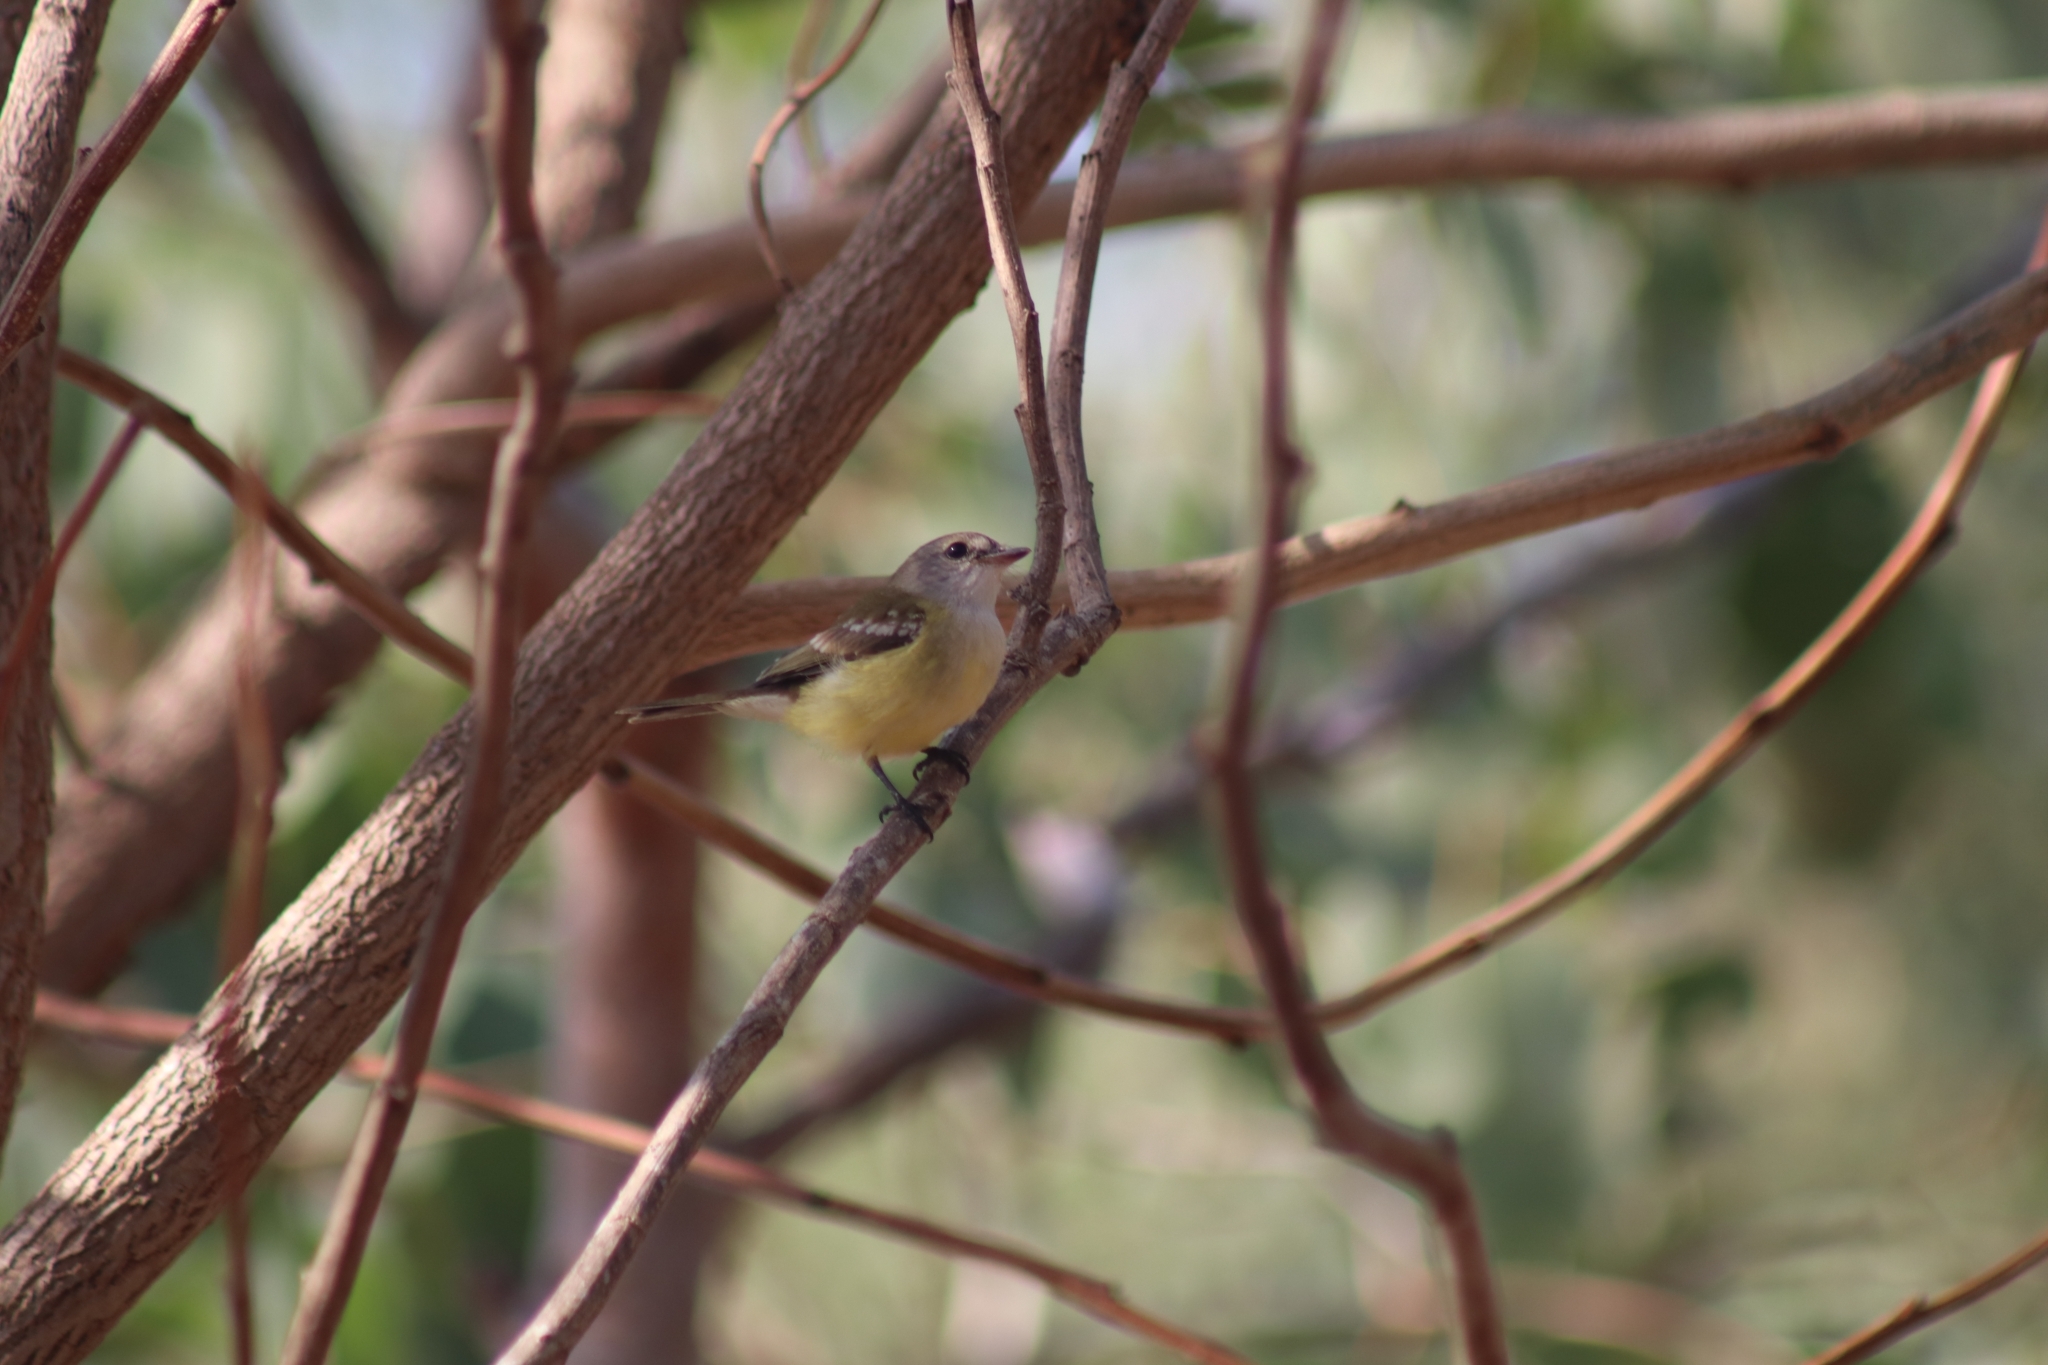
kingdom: Animalia
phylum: Chordata
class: Aves
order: Passeriformes
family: Petroicidae
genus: Microeca
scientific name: Microeca flavigaster
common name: Lemon-bellied flyrobin
